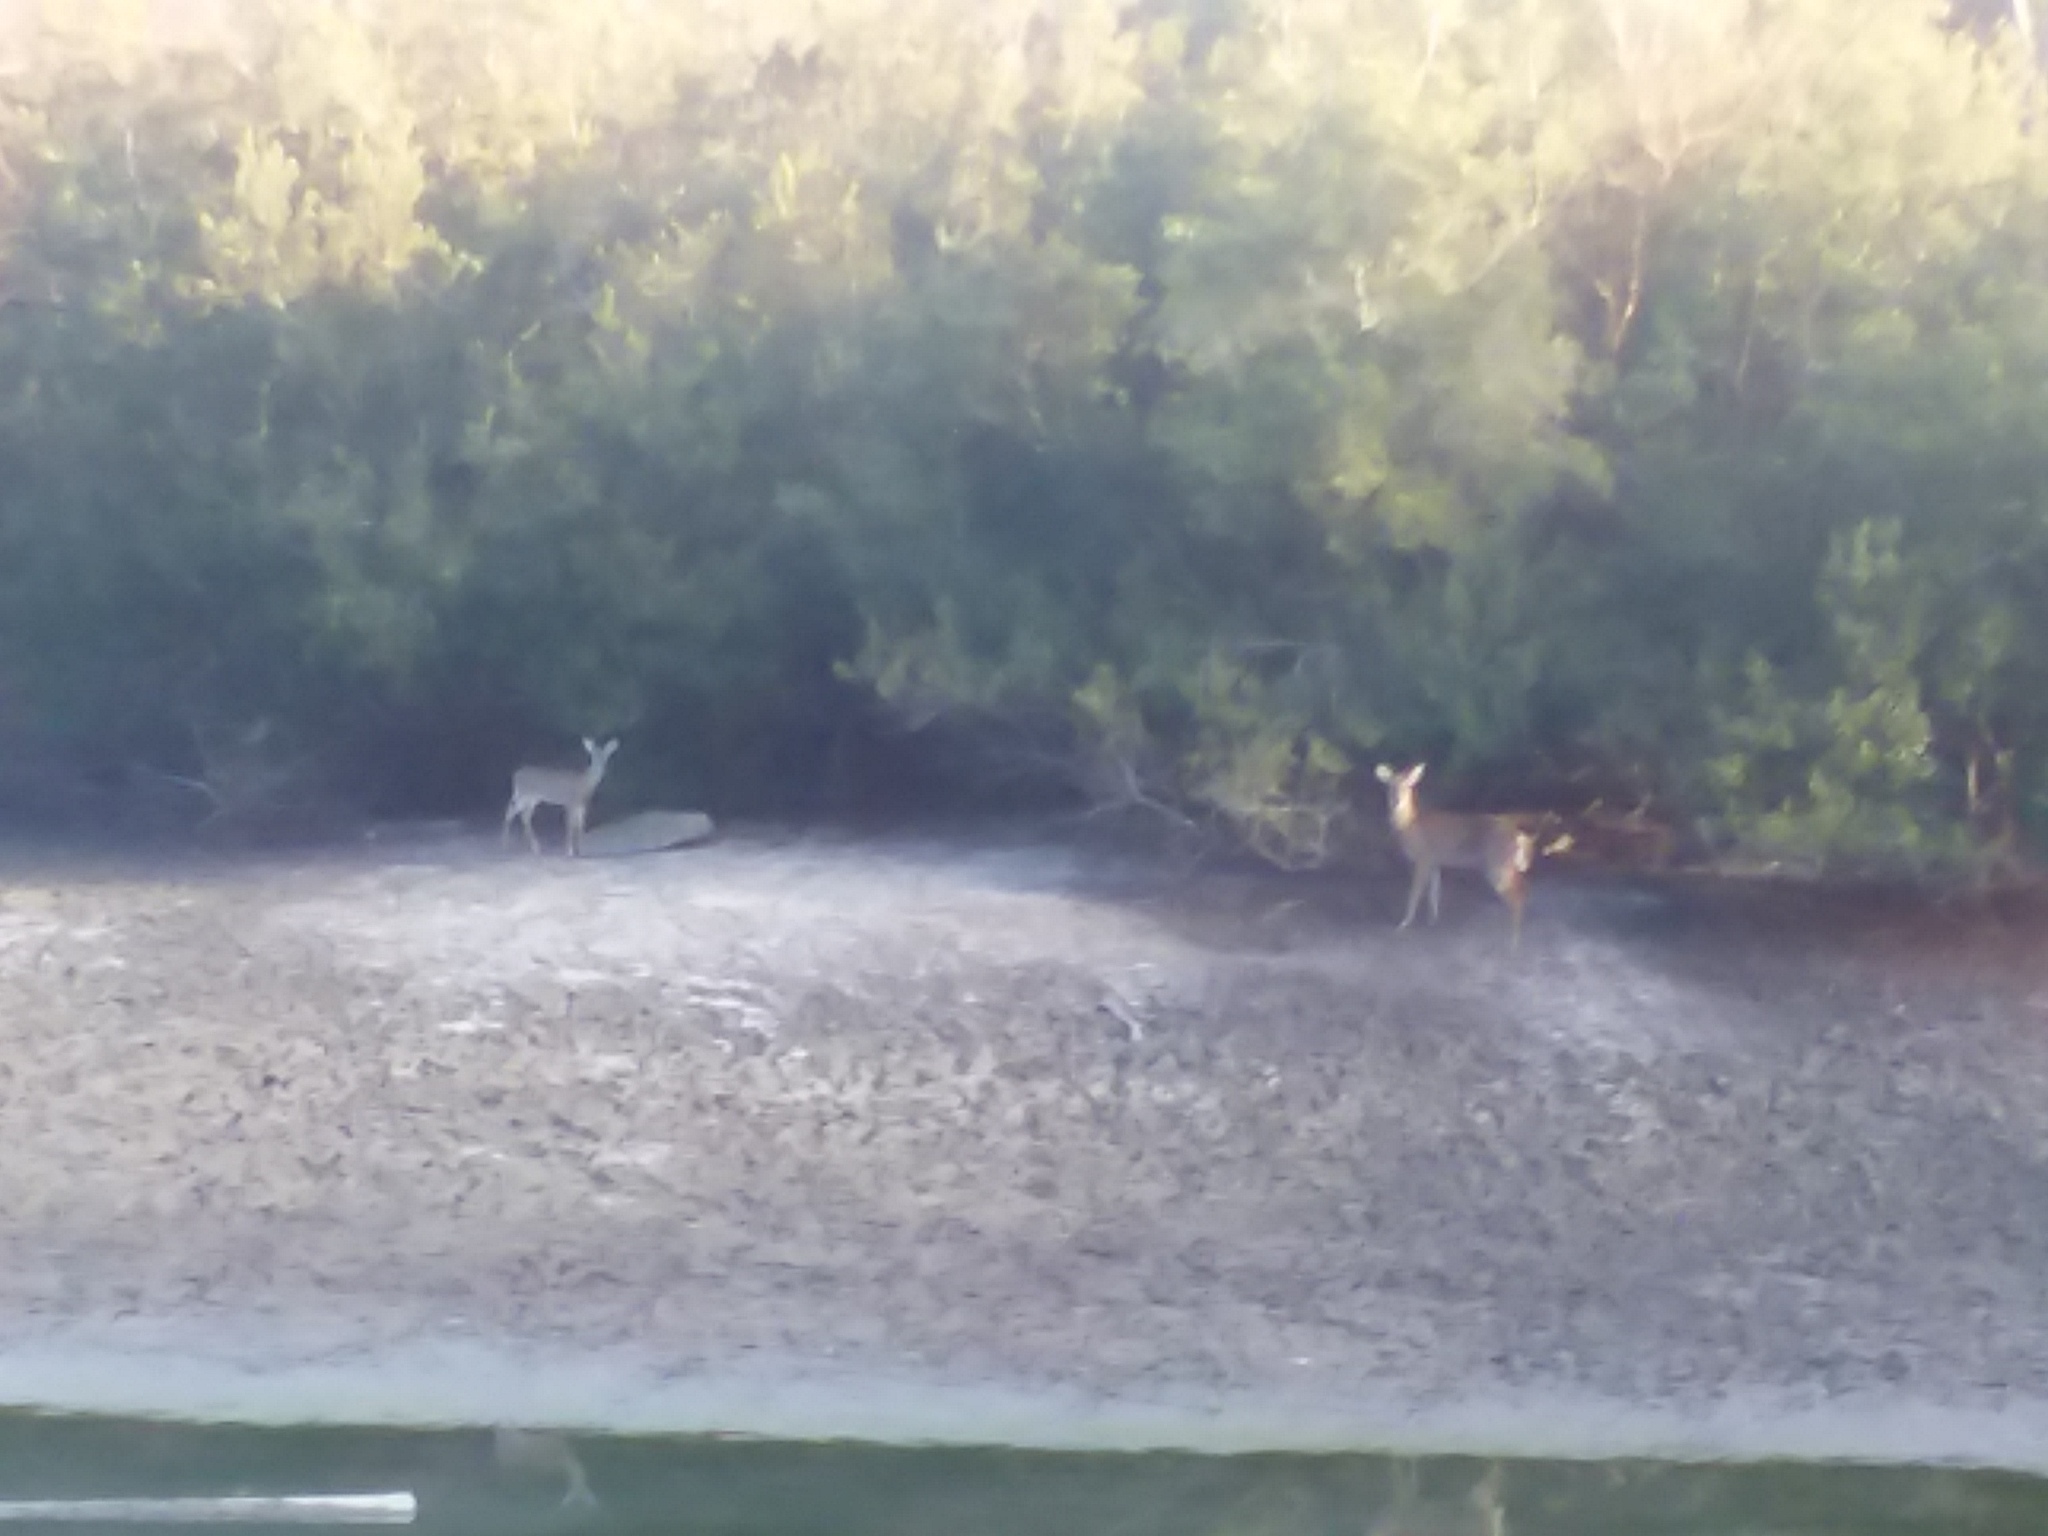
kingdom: Animalia
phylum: Chordata
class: Mammalia
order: Artiodactyla
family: Cervidae
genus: Odocoileus
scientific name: Odocoileus virginianus
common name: White-tailed deer
